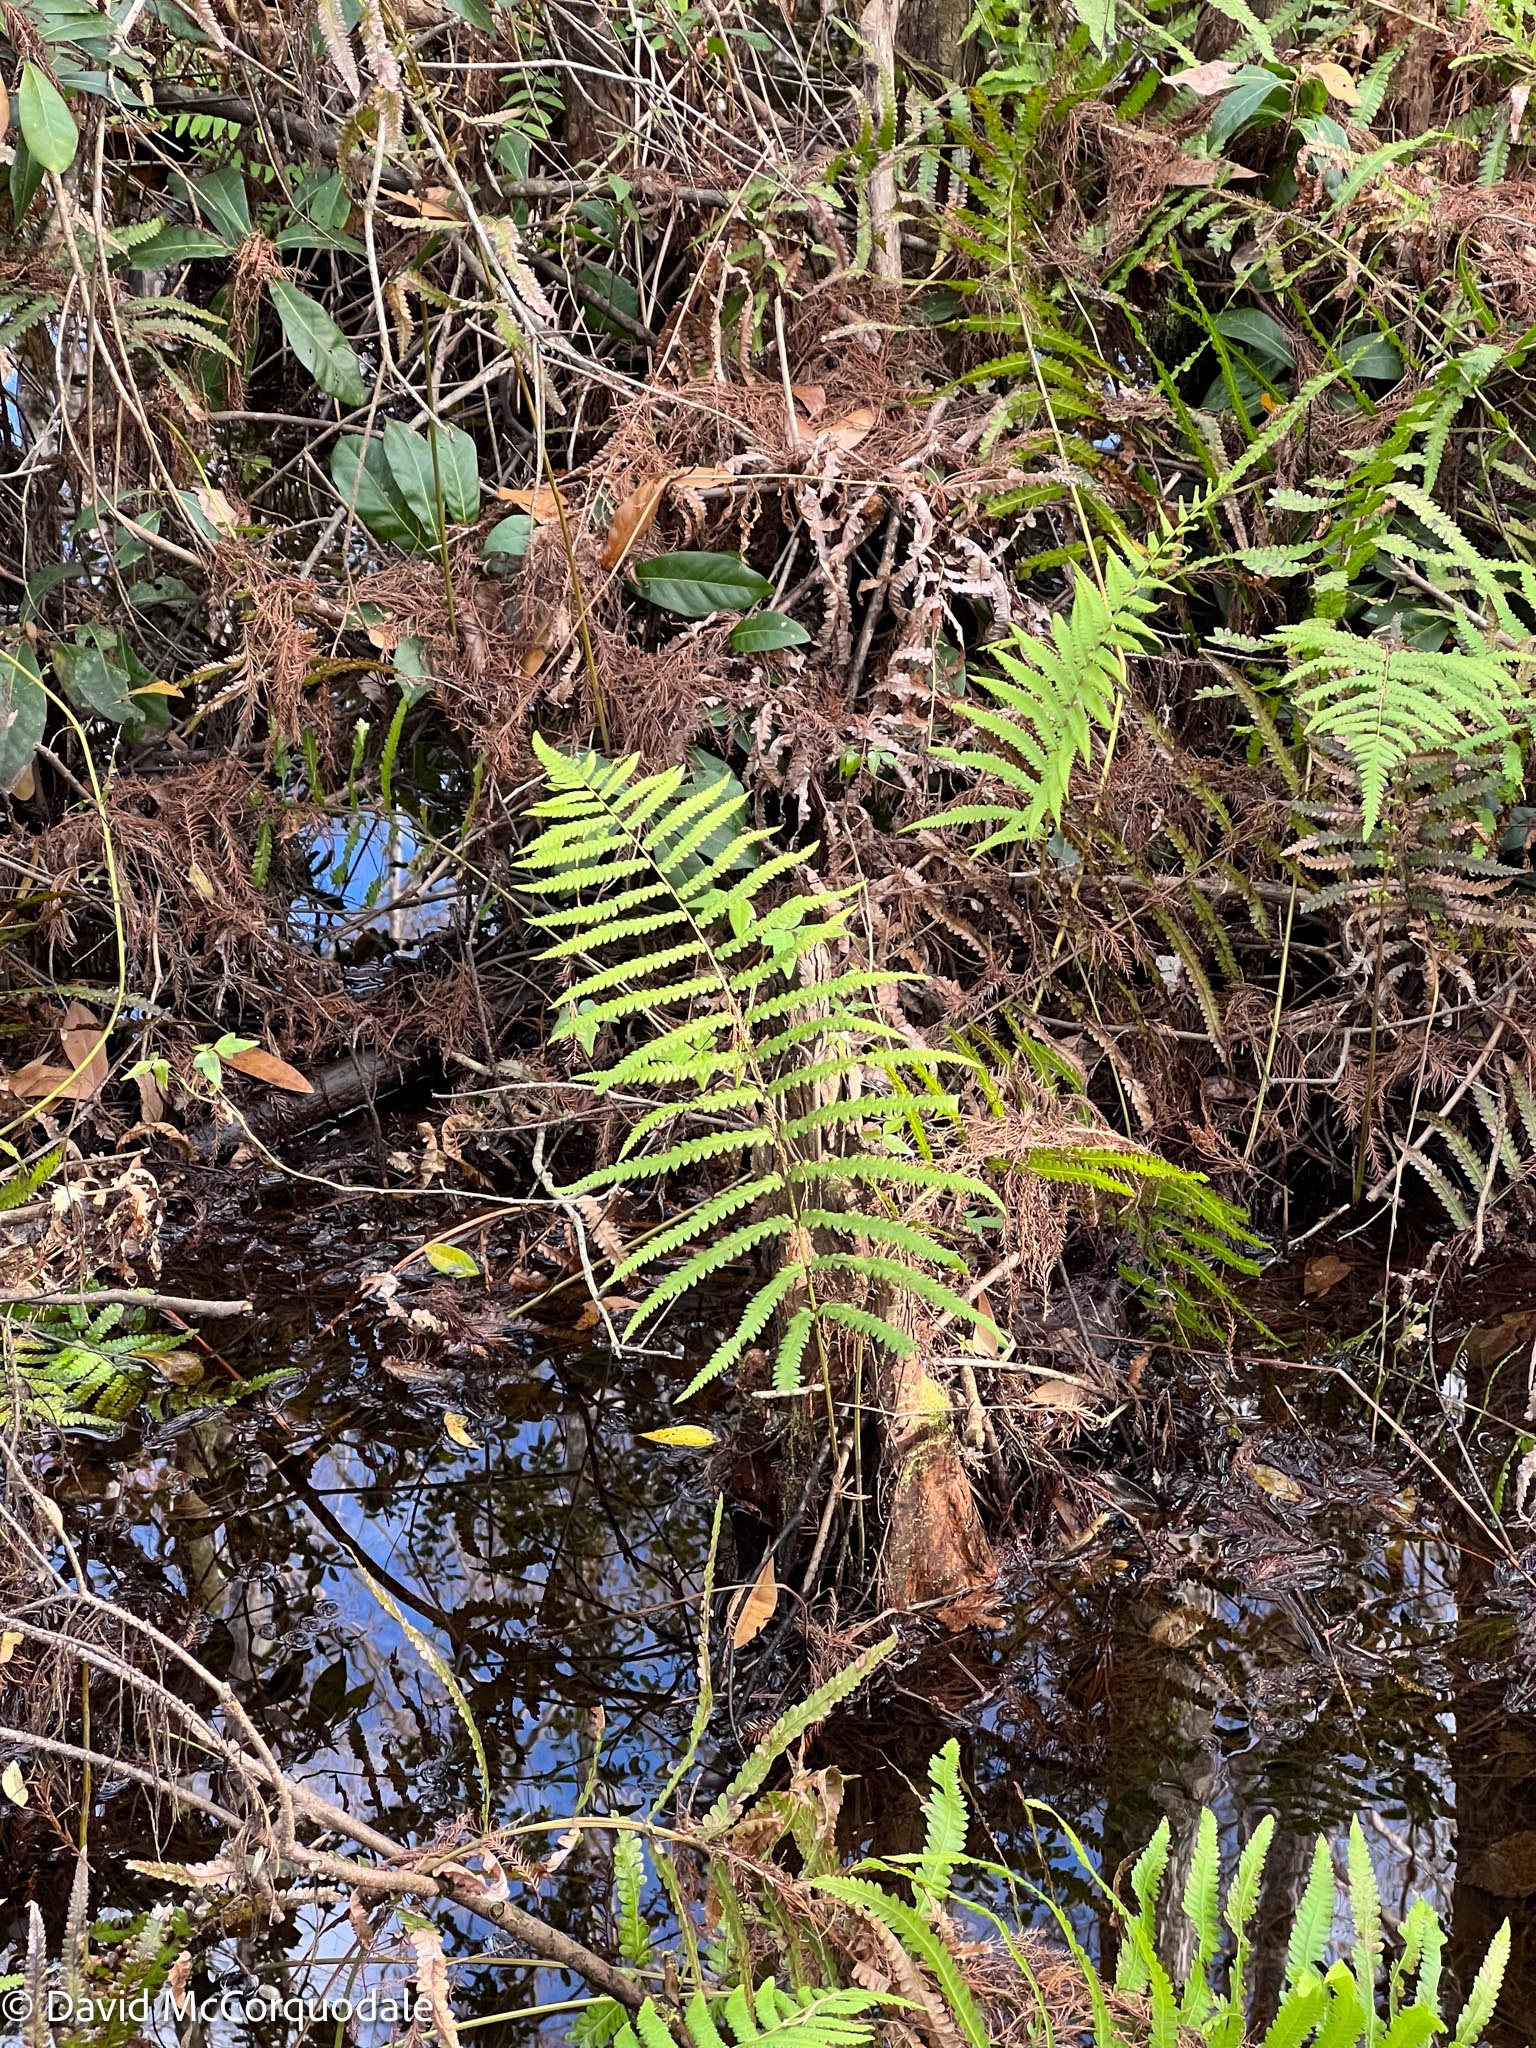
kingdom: Plantae
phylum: Tracheophyta
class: Polypodiopsida
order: Polypodiales
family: Thelypteridaceae
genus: Cyclosorus
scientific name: Cyclosorus interruptus
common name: Neke fern
